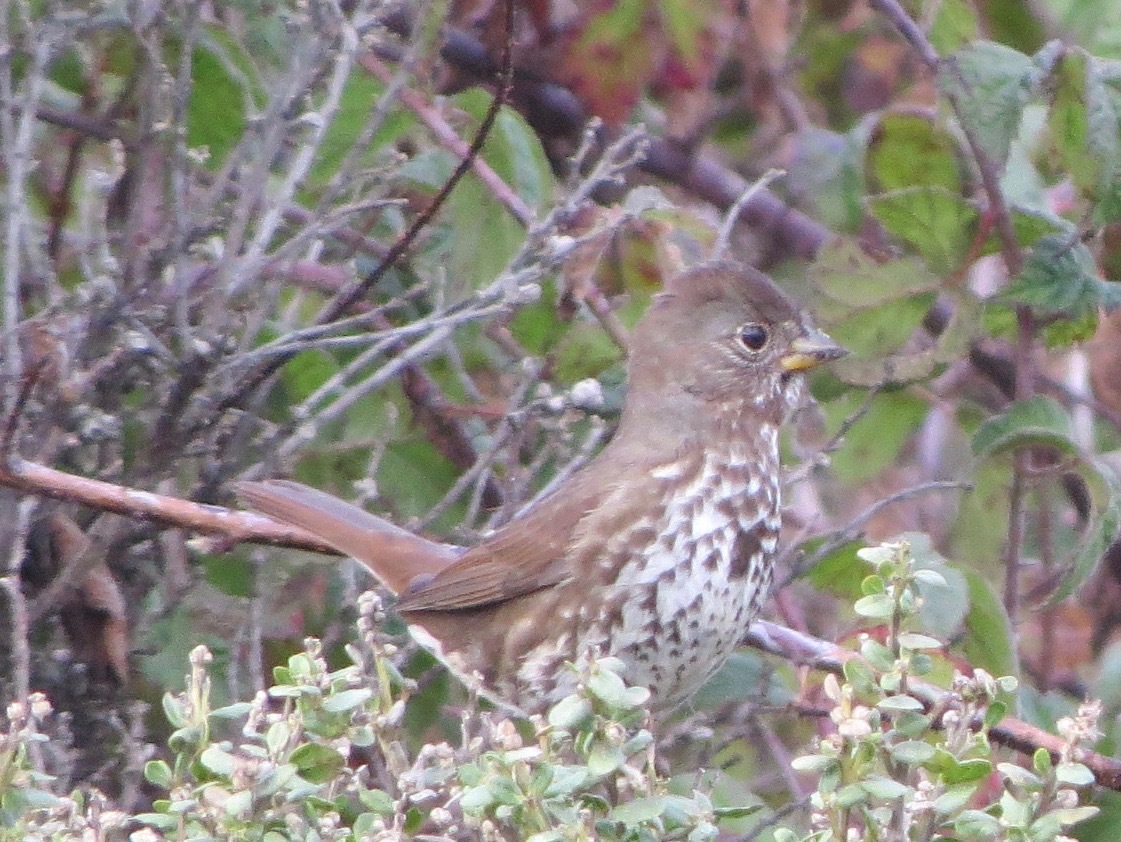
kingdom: Animalia
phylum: Chordata
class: Aves
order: Passeriformes
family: Passerellidae
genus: Passerella
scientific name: Passerella iliaca
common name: Fox sparrow
